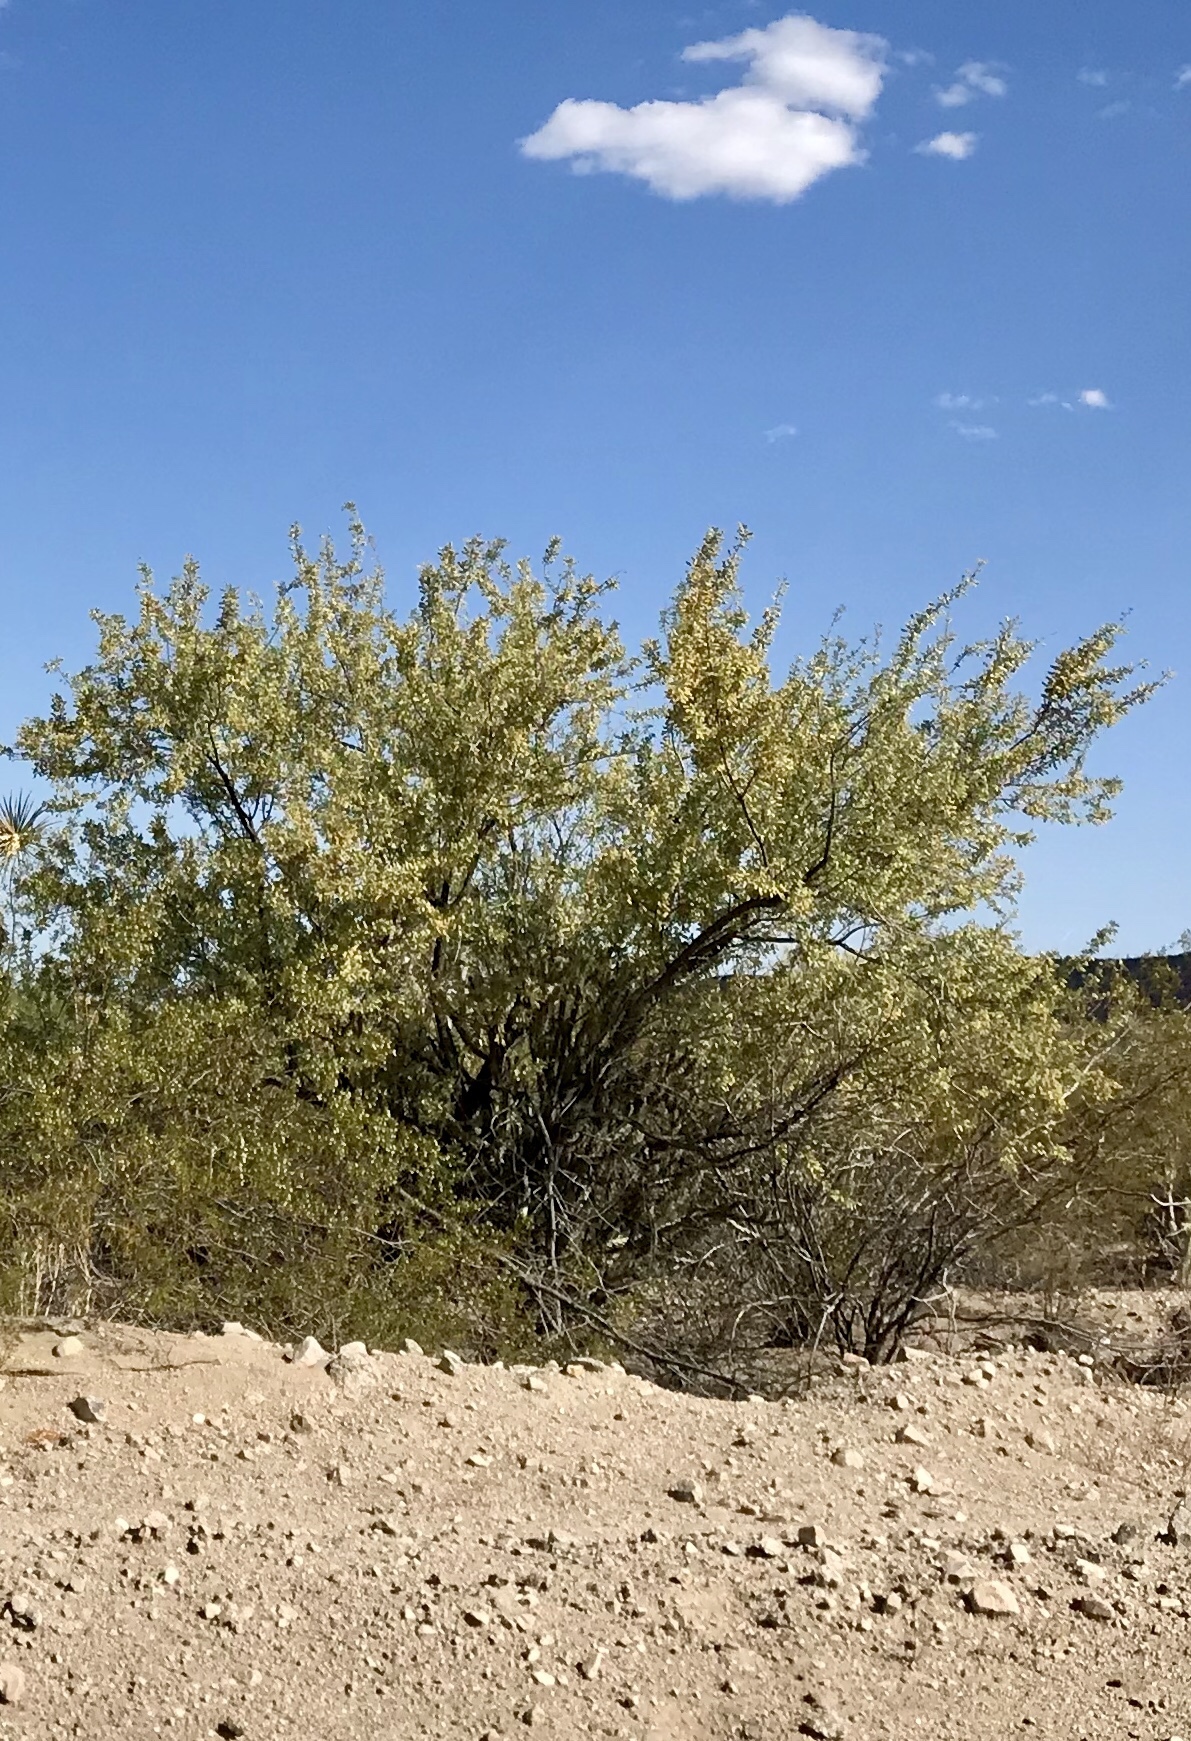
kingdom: Plantae
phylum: Tracheophyta
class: Magnoliopsida
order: Fabales
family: Fabaceae
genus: Senegalia
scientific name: Senegalia greggii
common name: Texas-mimosa
